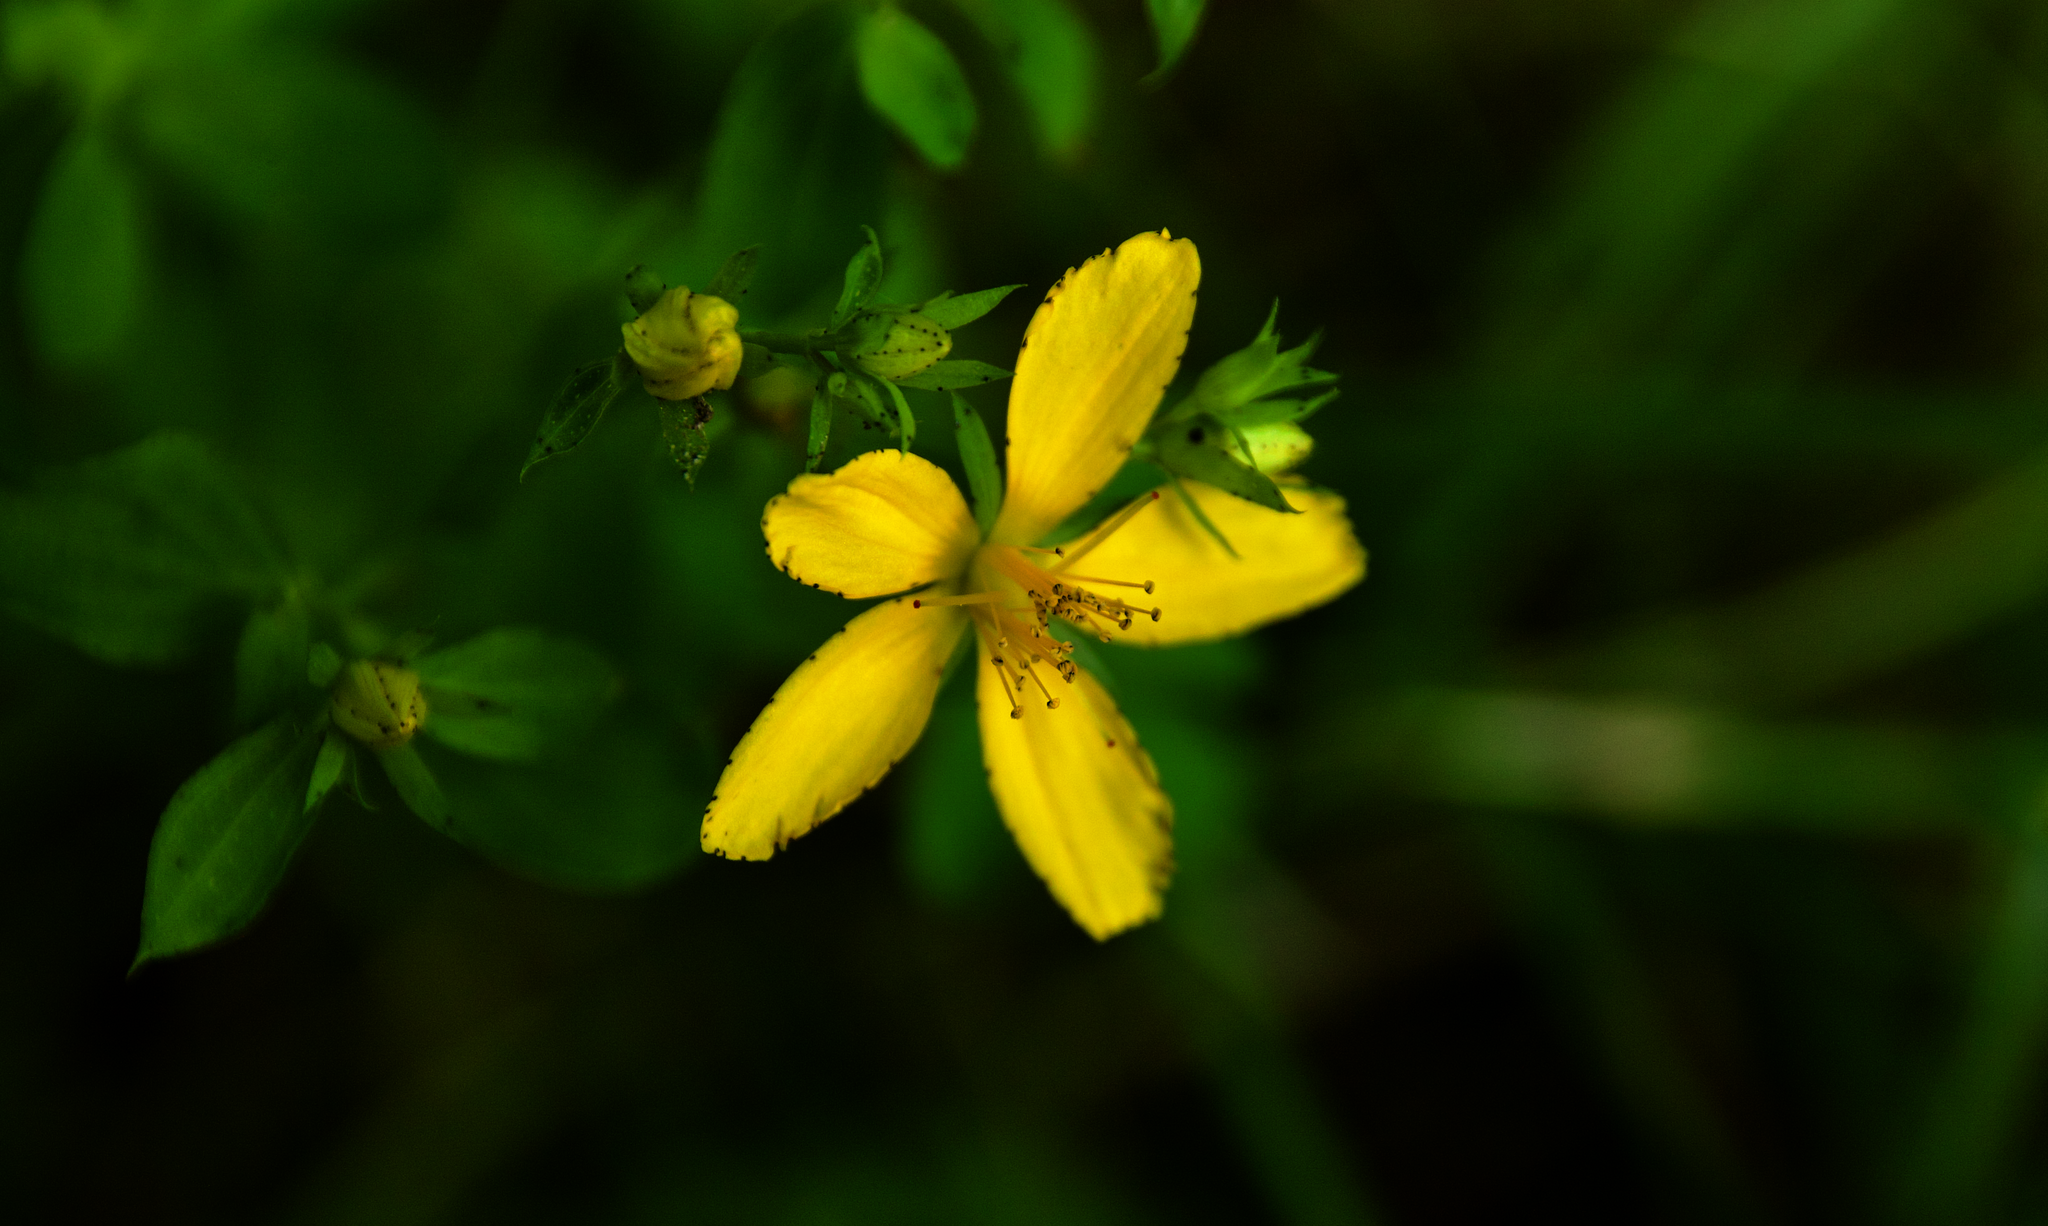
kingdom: Plantae
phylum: Tracheophyta
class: Magnoliopsida
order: Malpighiales
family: Hypericaceae
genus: Hypericum
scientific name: Hypericum perforatum
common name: Common st. johnswort
